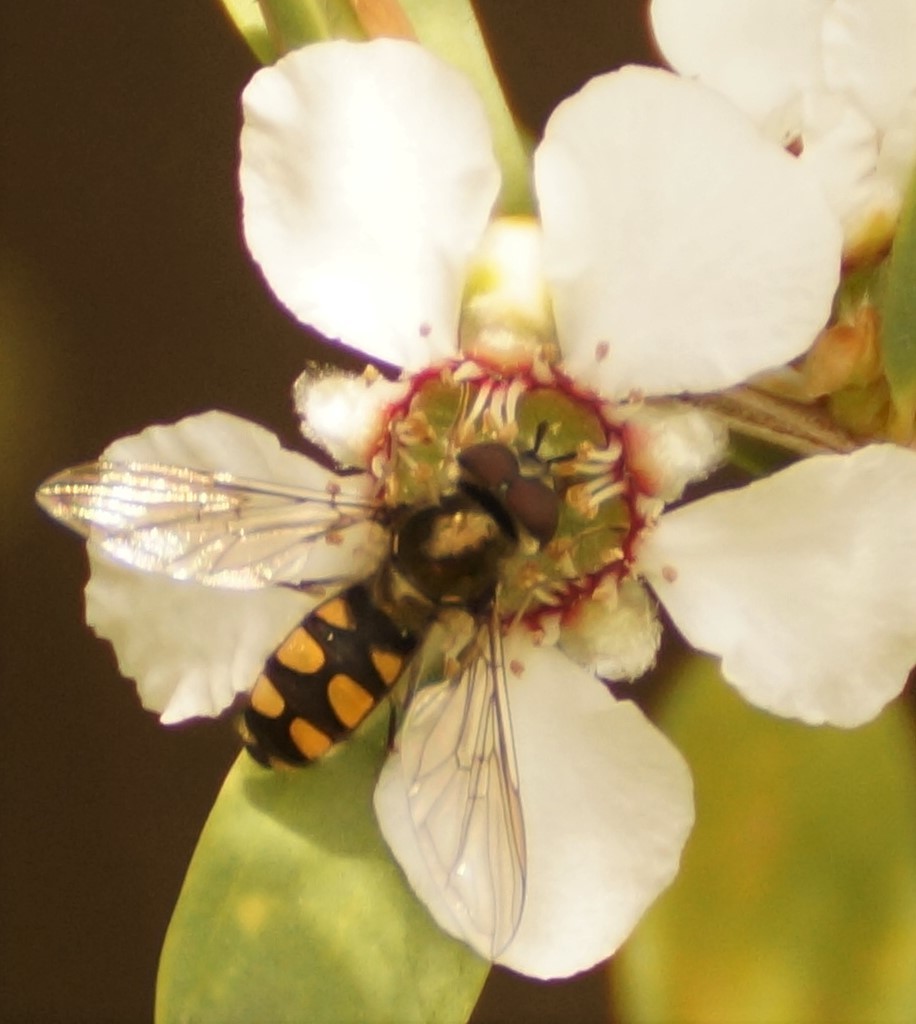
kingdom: Animalia
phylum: Arthropoda
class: Insecta
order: Diptera
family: Syrphidae
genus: Melangyna
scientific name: Melangyna viridiceps
